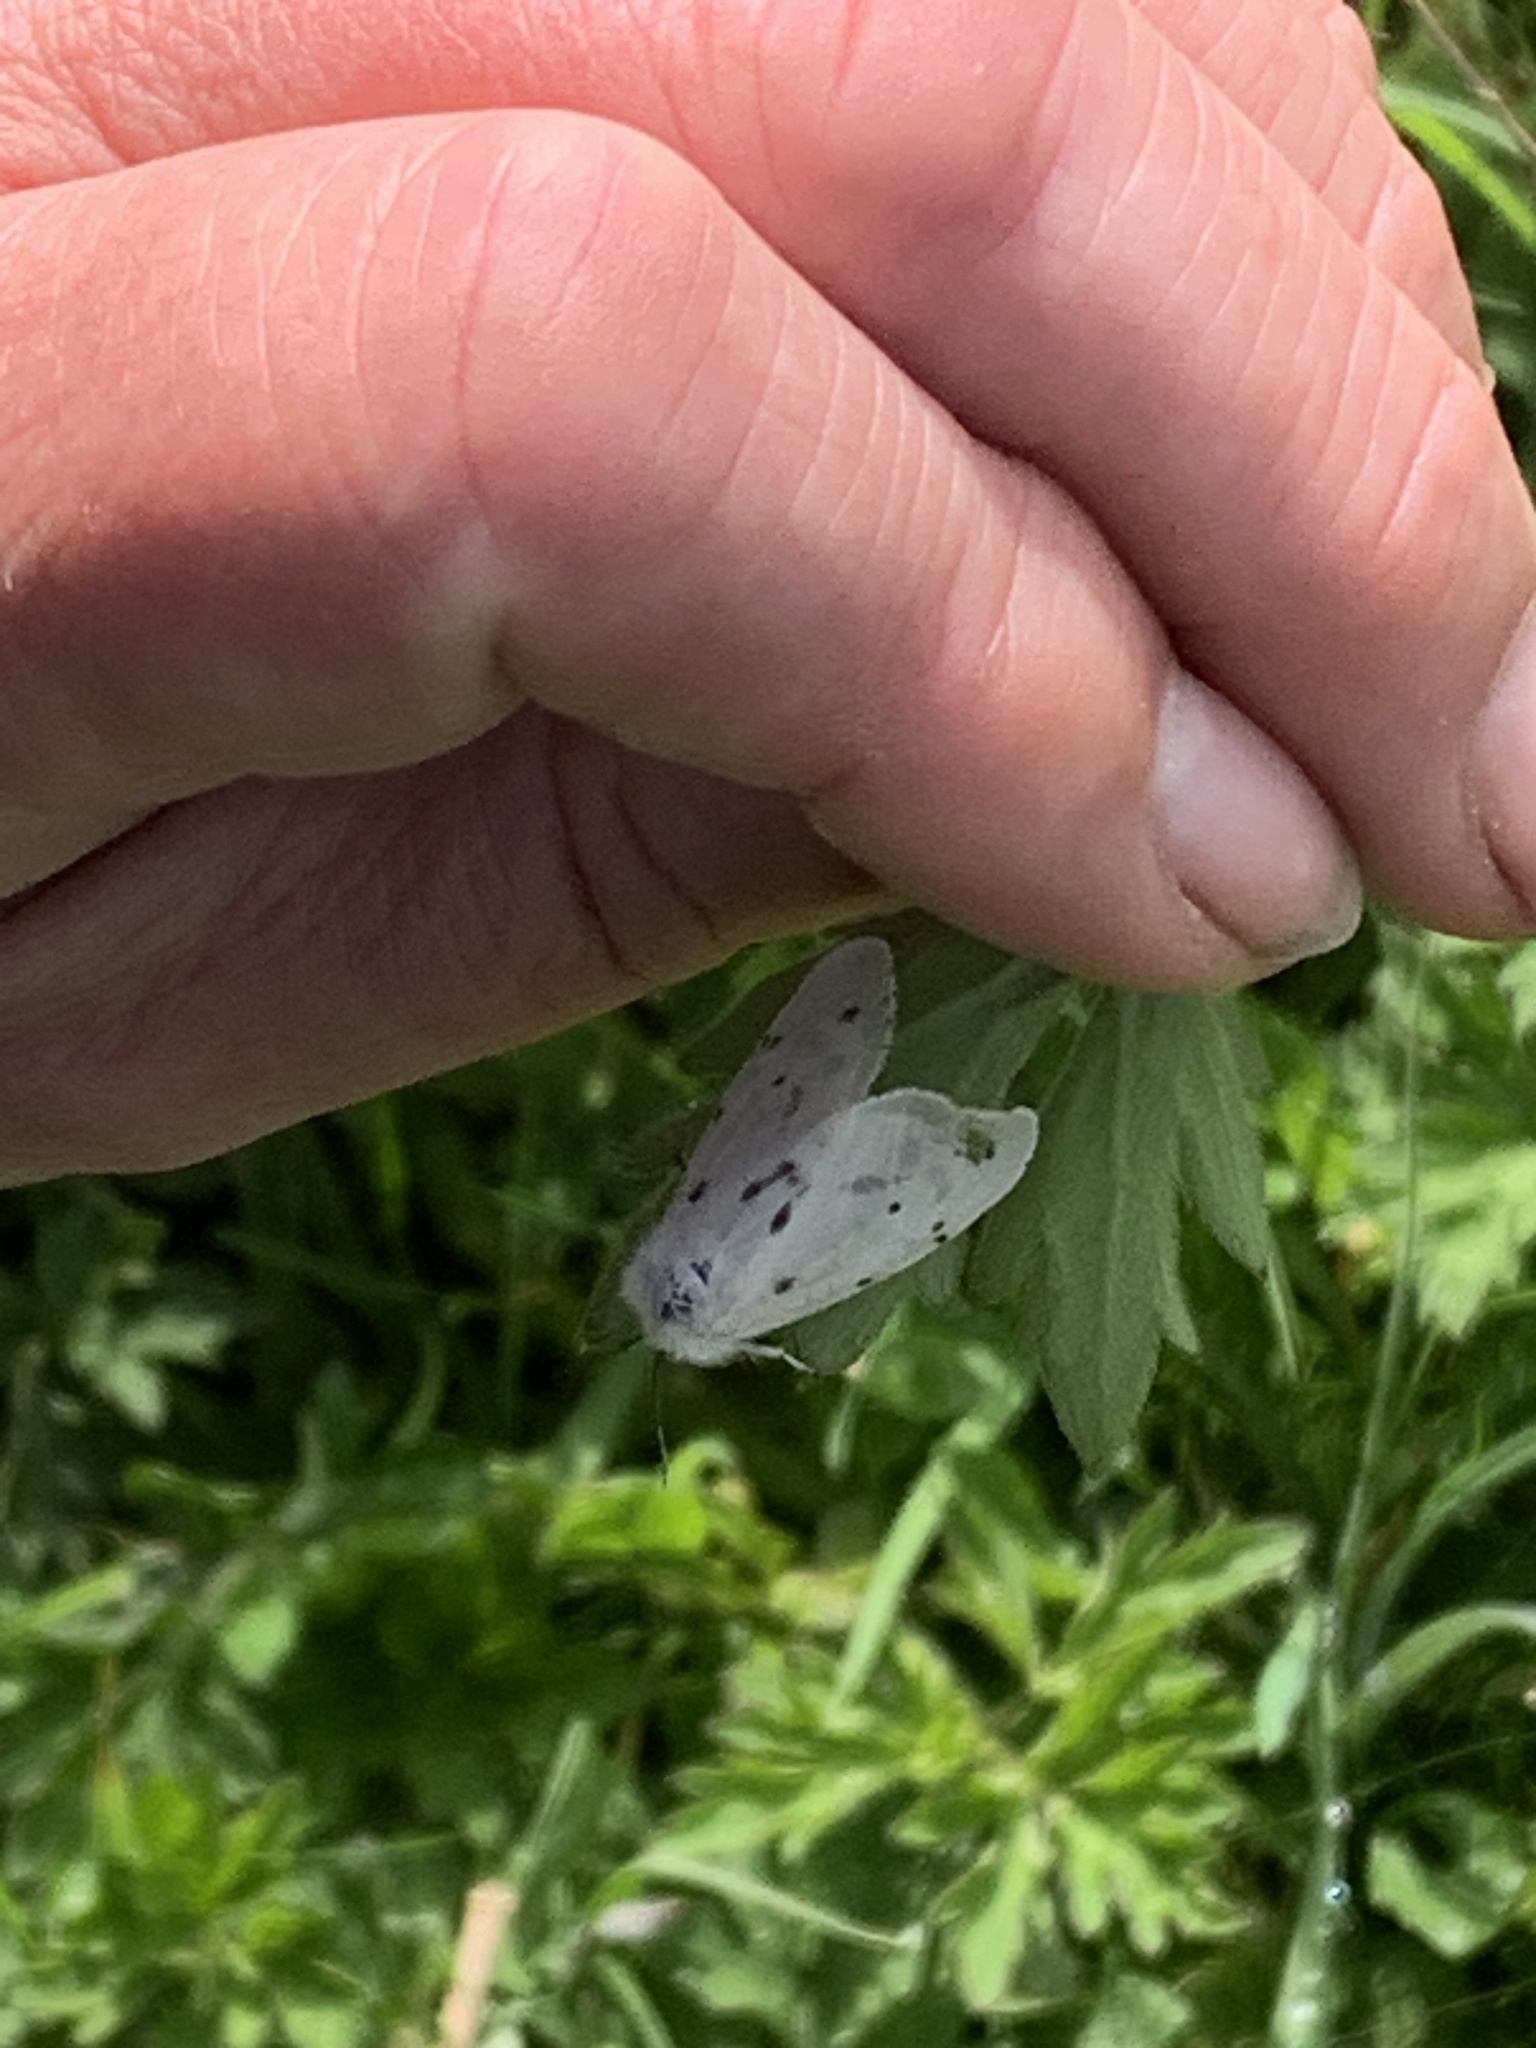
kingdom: Animalia
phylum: Arthropoda
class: Insecta
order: Lepidoptera
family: Erebidae
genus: Diaphora
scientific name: Diaphora mendica
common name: Muslin moth
